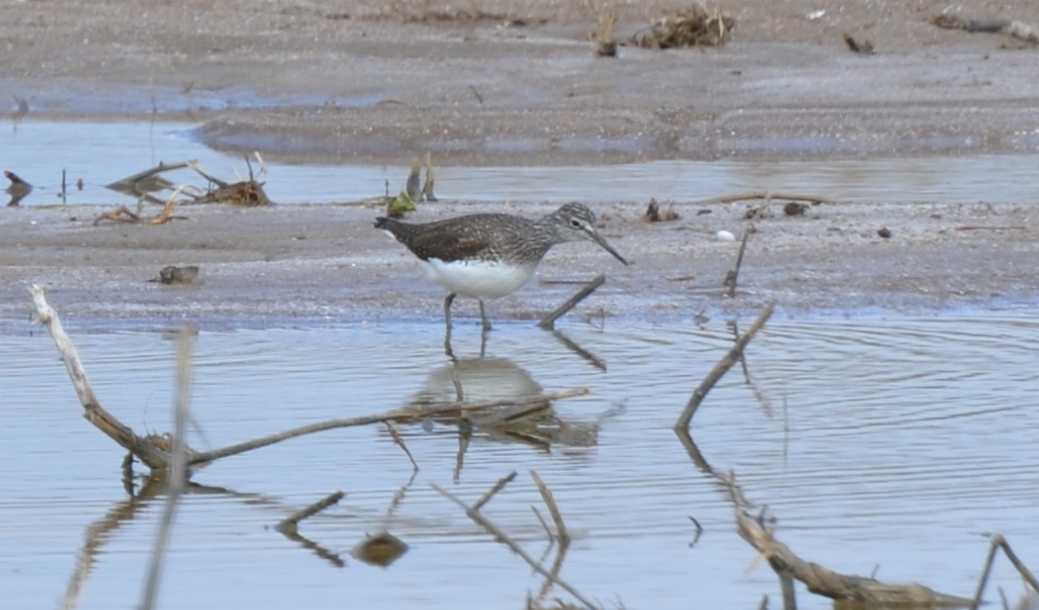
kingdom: Animalia
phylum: Chordata
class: Aves
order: Charadriiformes
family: Scolopacidae
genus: Tringa
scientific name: Tringa ochropus
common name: Green sandpiper
